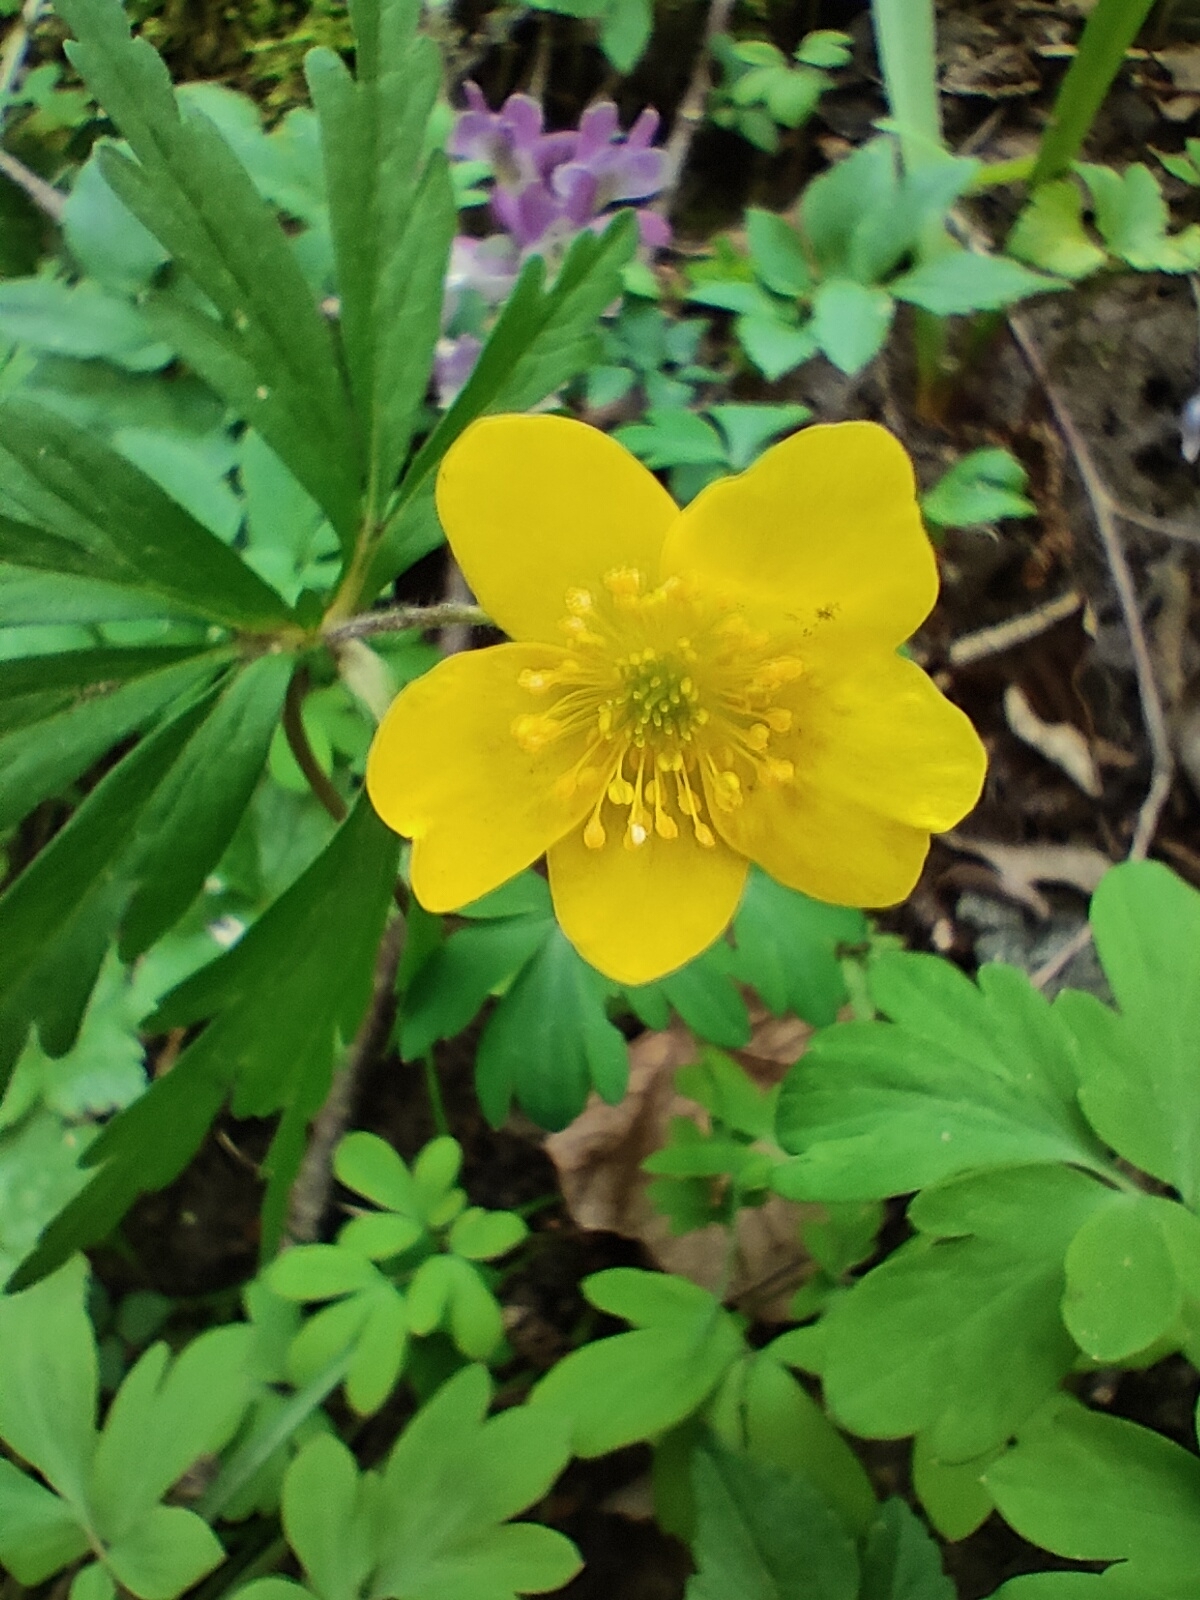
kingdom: Plantae
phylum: Tracheophyta
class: Magnoliopsida
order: Ranunculales
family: Ranunculaceae
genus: Anemone
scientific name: Anemone ranunculoides
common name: Yellow anemone
